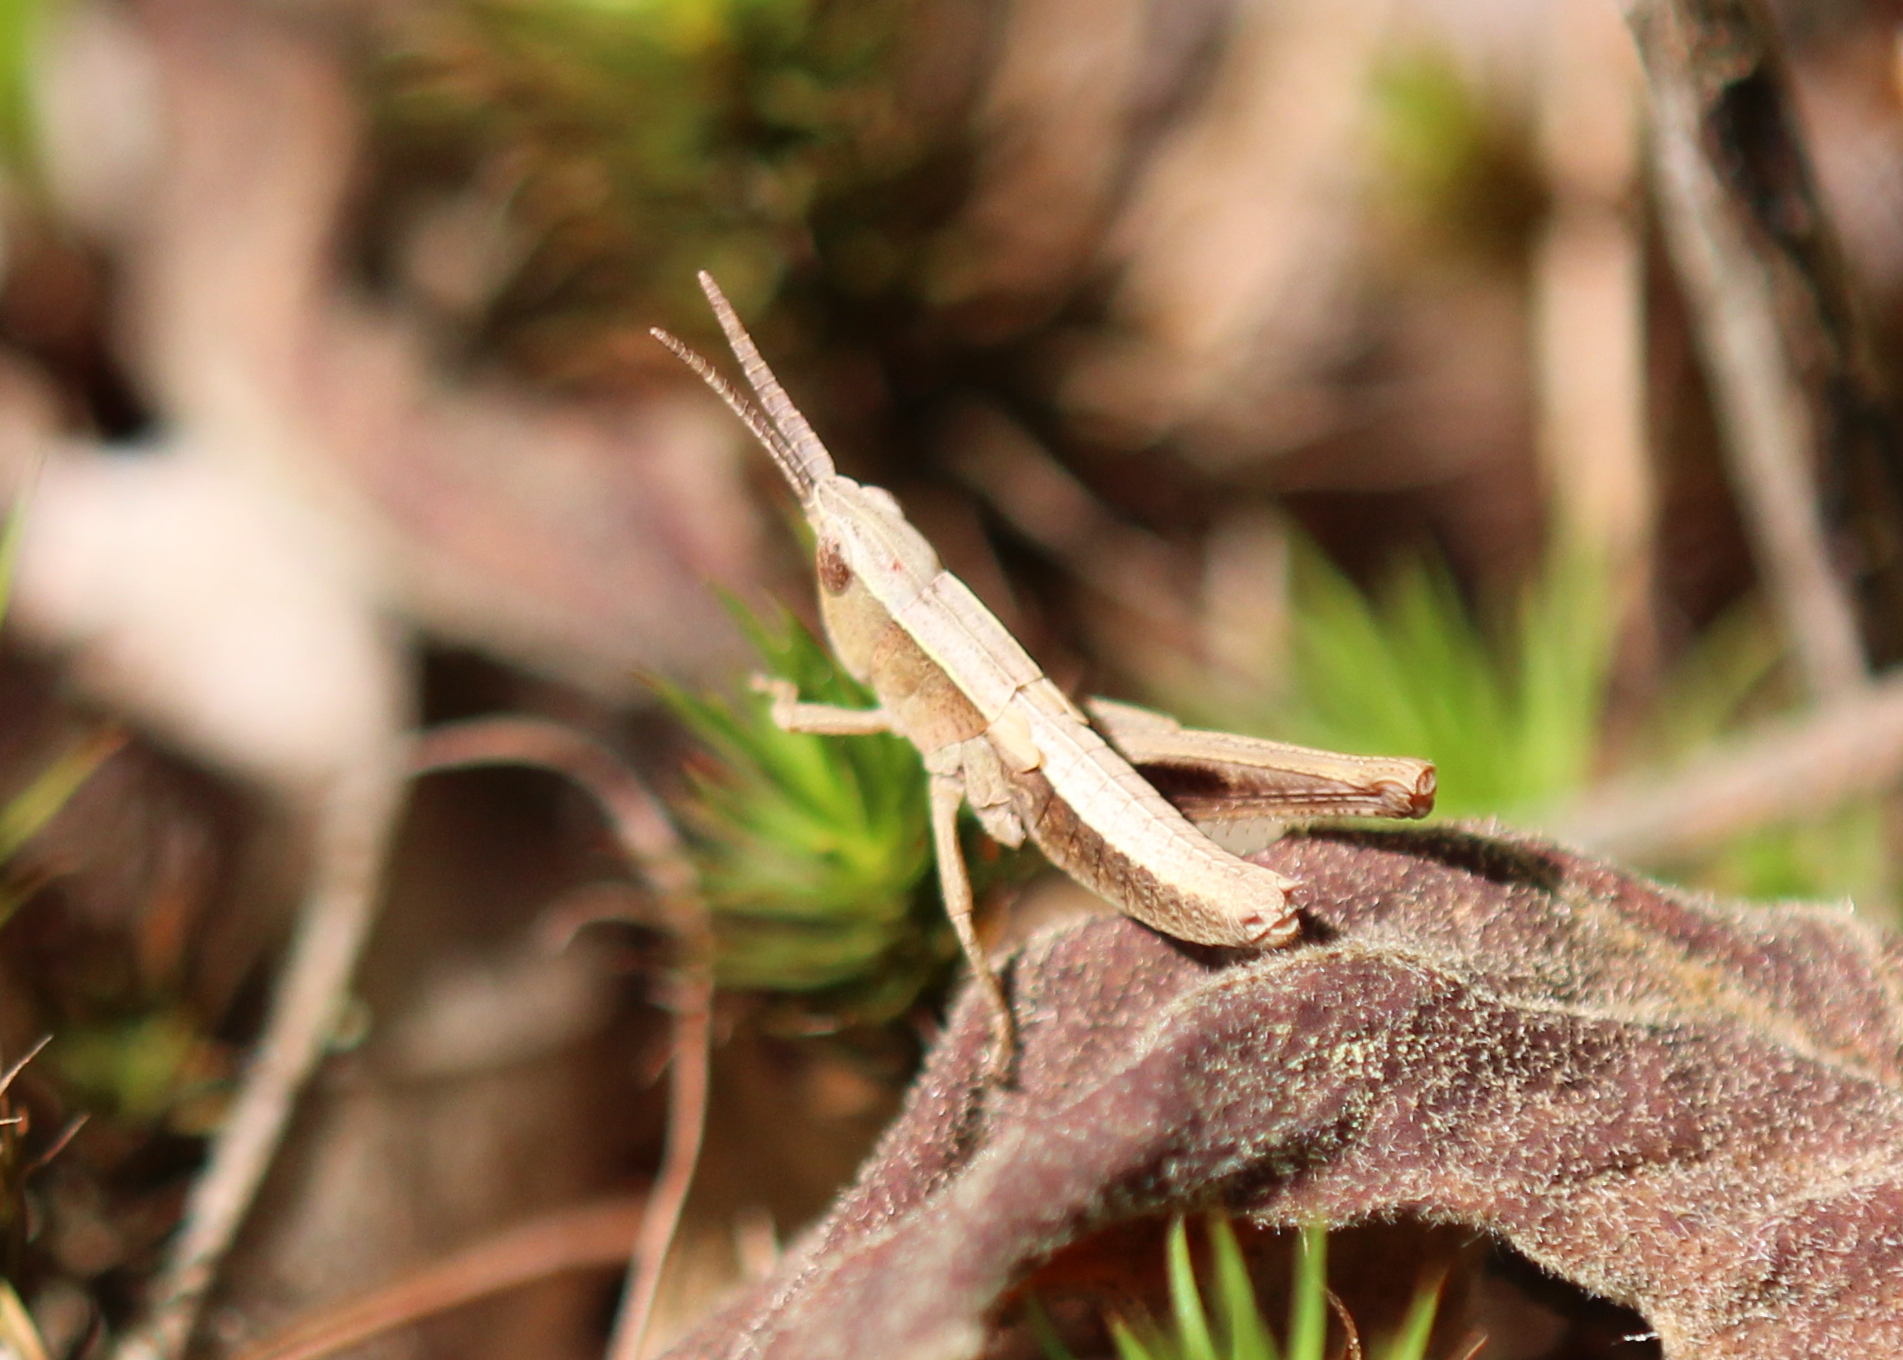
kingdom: Animalia
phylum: Arthropoda
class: Insecta
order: Orthoptera
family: Acrididae
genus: Chloealtis
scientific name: Chloealtis conspersa
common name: Sprinkled broad-winged grasshopper
